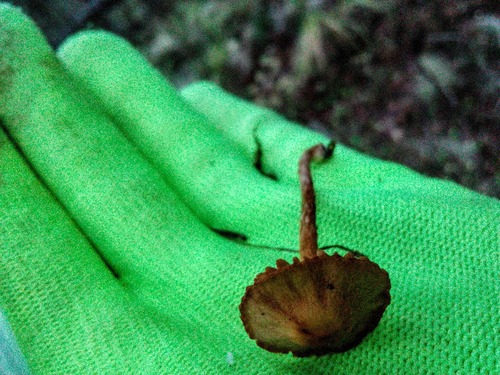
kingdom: Fungi
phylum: Basidiomycota
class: Agaricomycetes
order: Agaricales
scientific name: Agaricales
